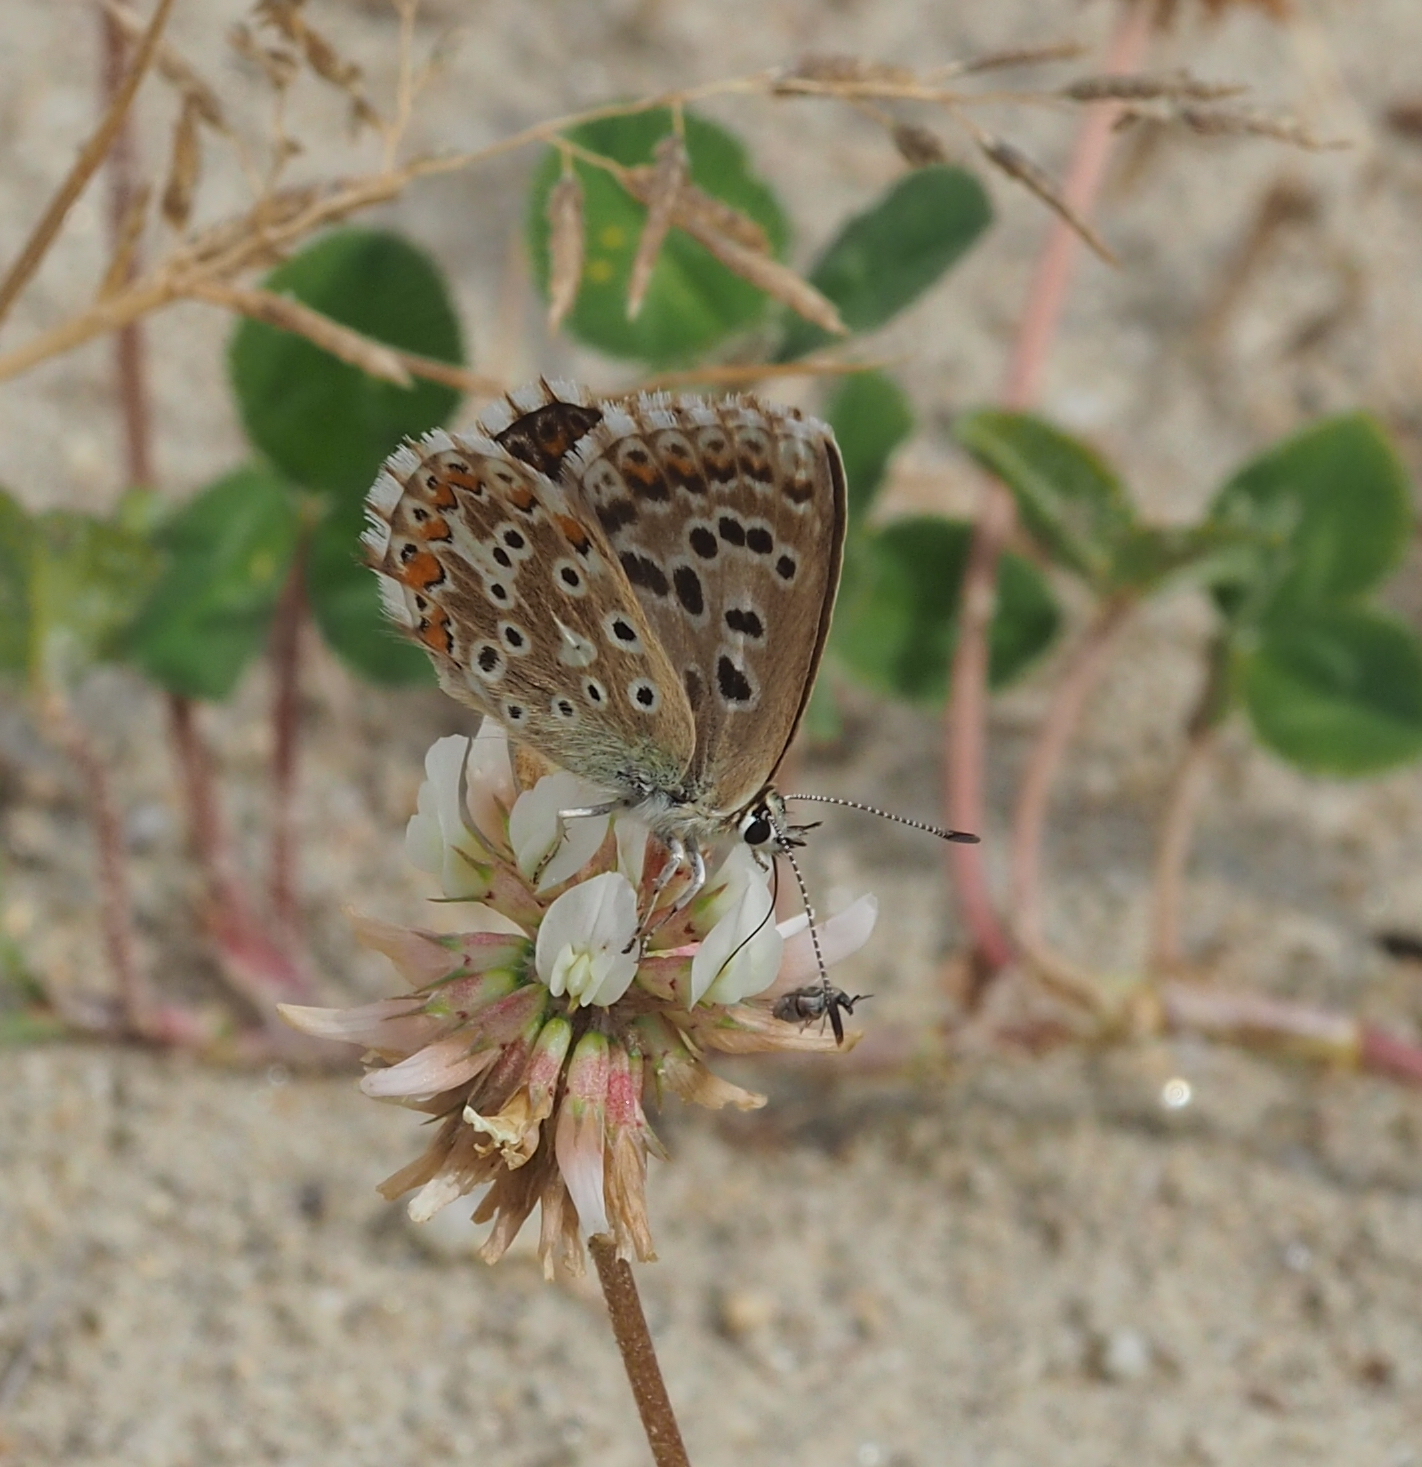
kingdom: Animalia
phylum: Arthropoda
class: Insecta
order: Lepidoptera
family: Lycaenidae
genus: Lysandra
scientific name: Lysandra coridon
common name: Chalkhill blue
